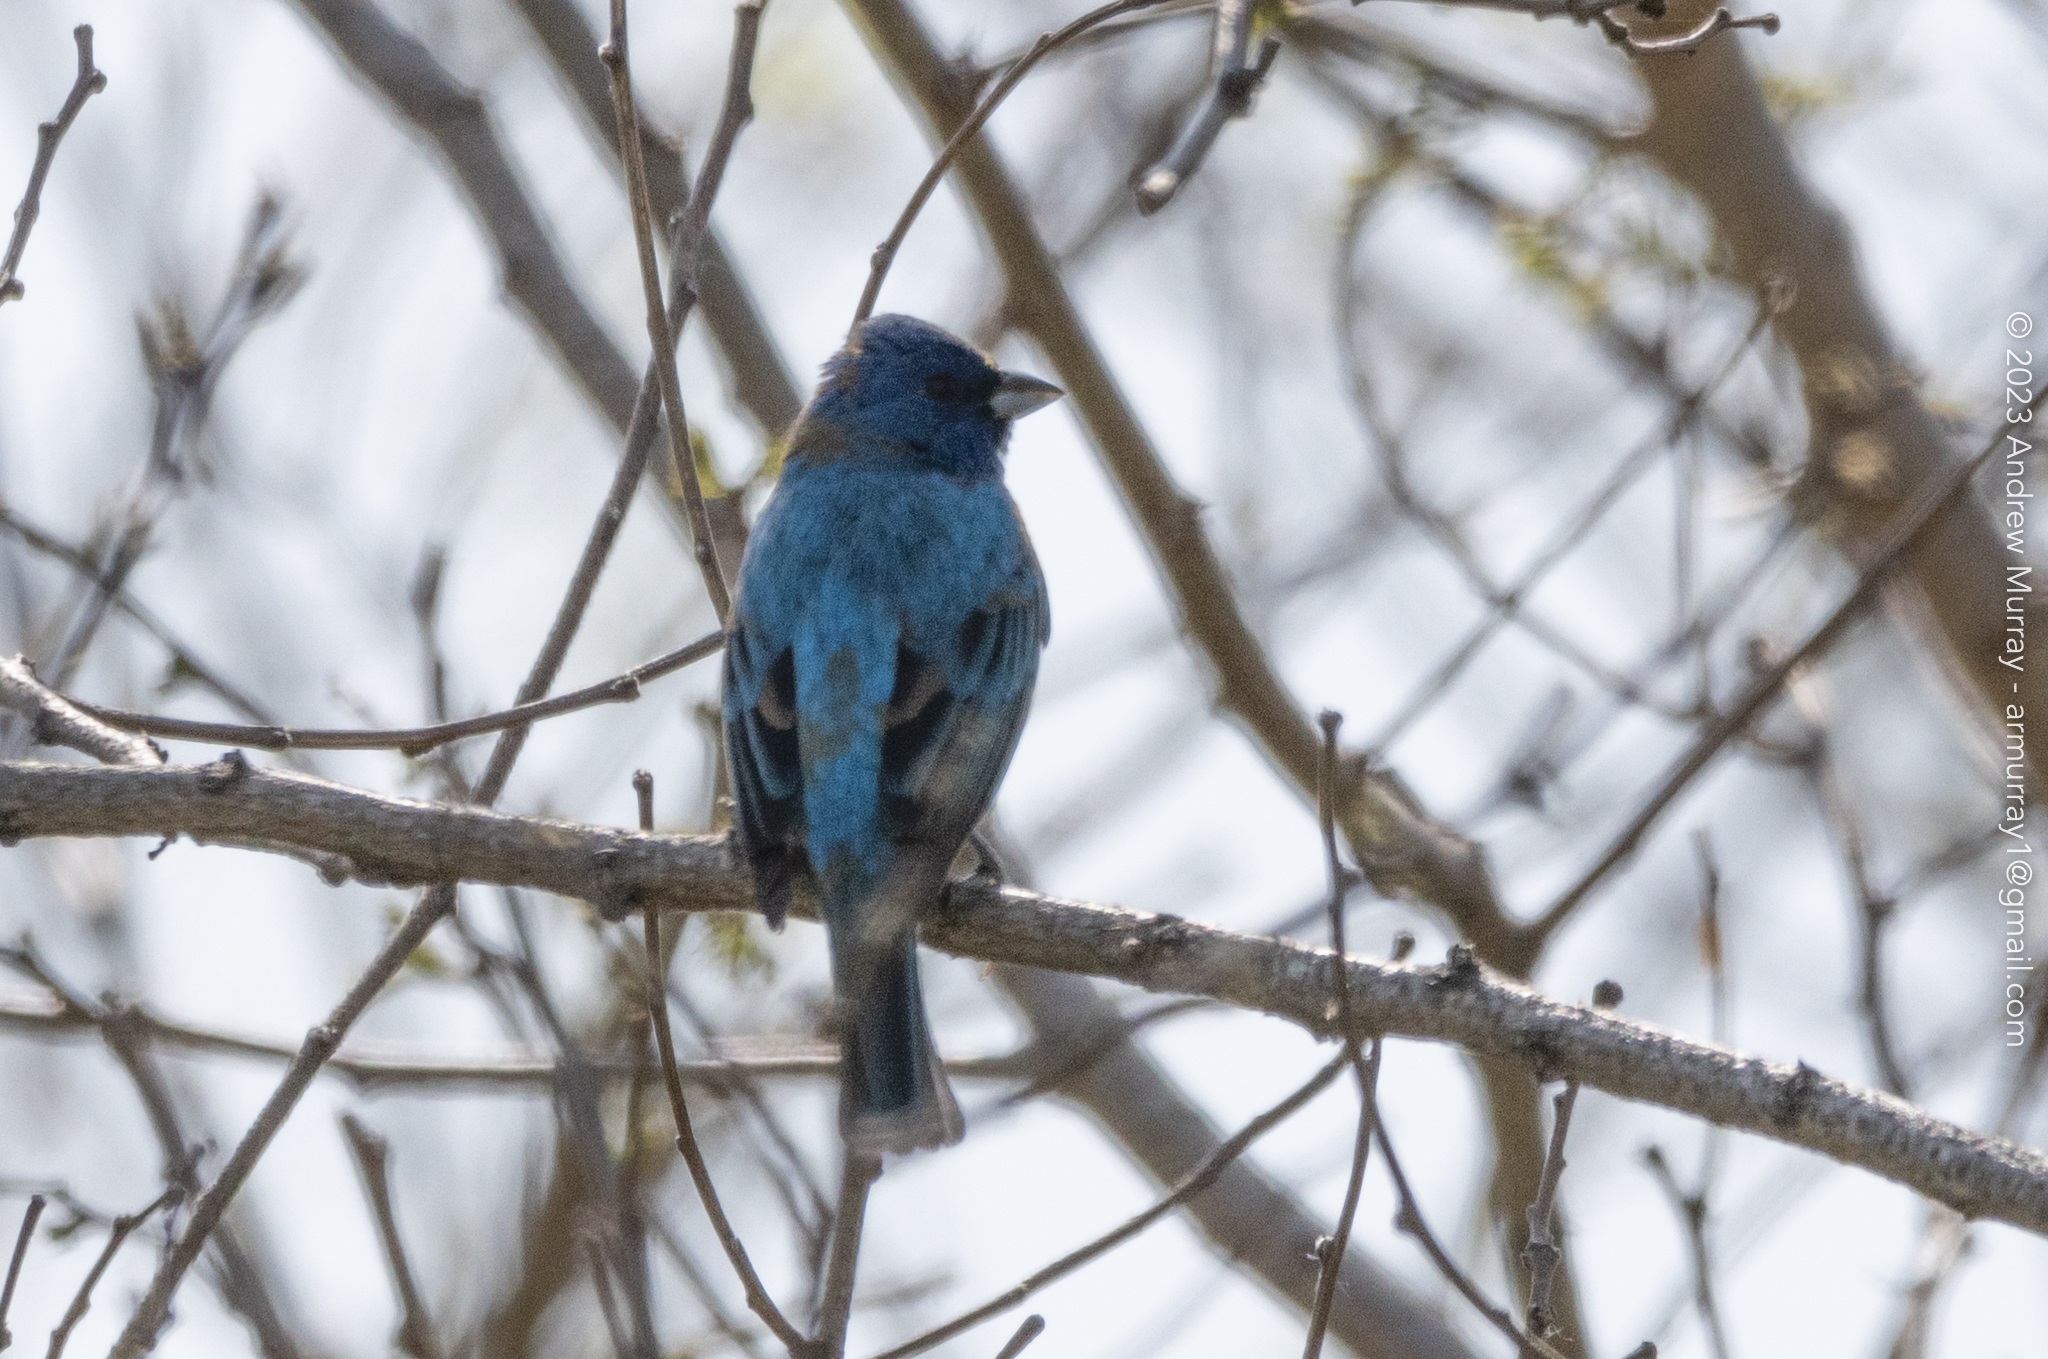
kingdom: Animalia
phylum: Chordata
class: Aves
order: Passeriformes
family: Cardinalidae
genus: Passerina
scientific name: Passerina cyanea
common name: Indigo bunting
